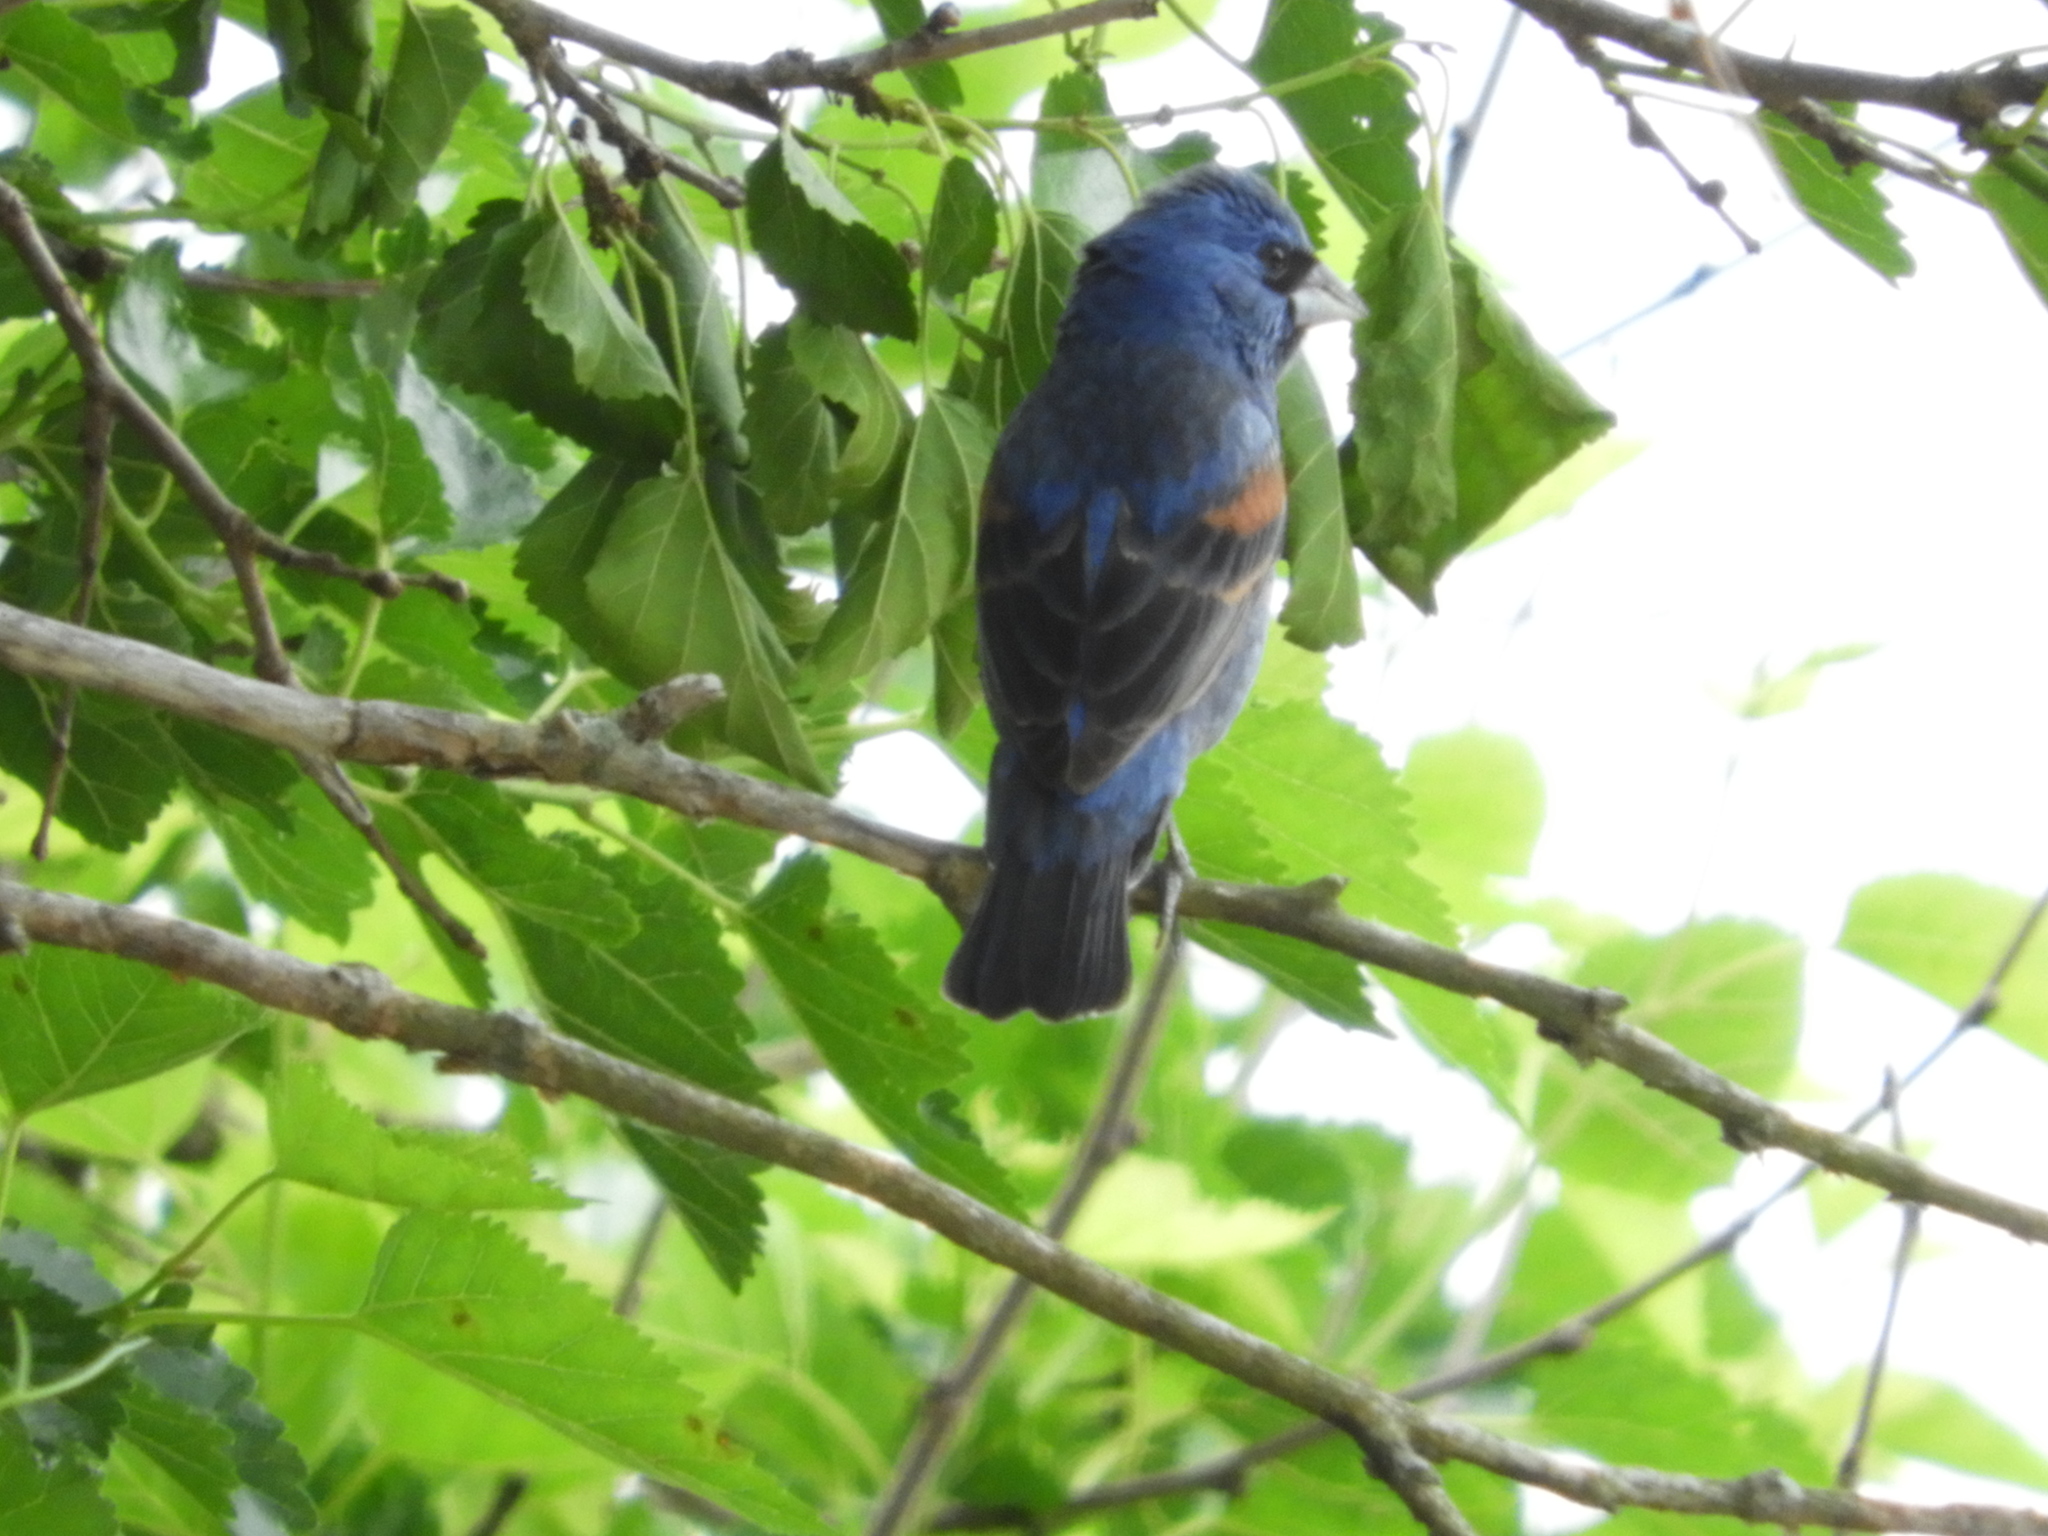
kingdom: Animalia
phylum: Chordata
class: Aves
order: Passeriformes
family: Cardinalidae
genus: Passerina
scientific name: Passerina caerulea
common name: Blue grosbeak
